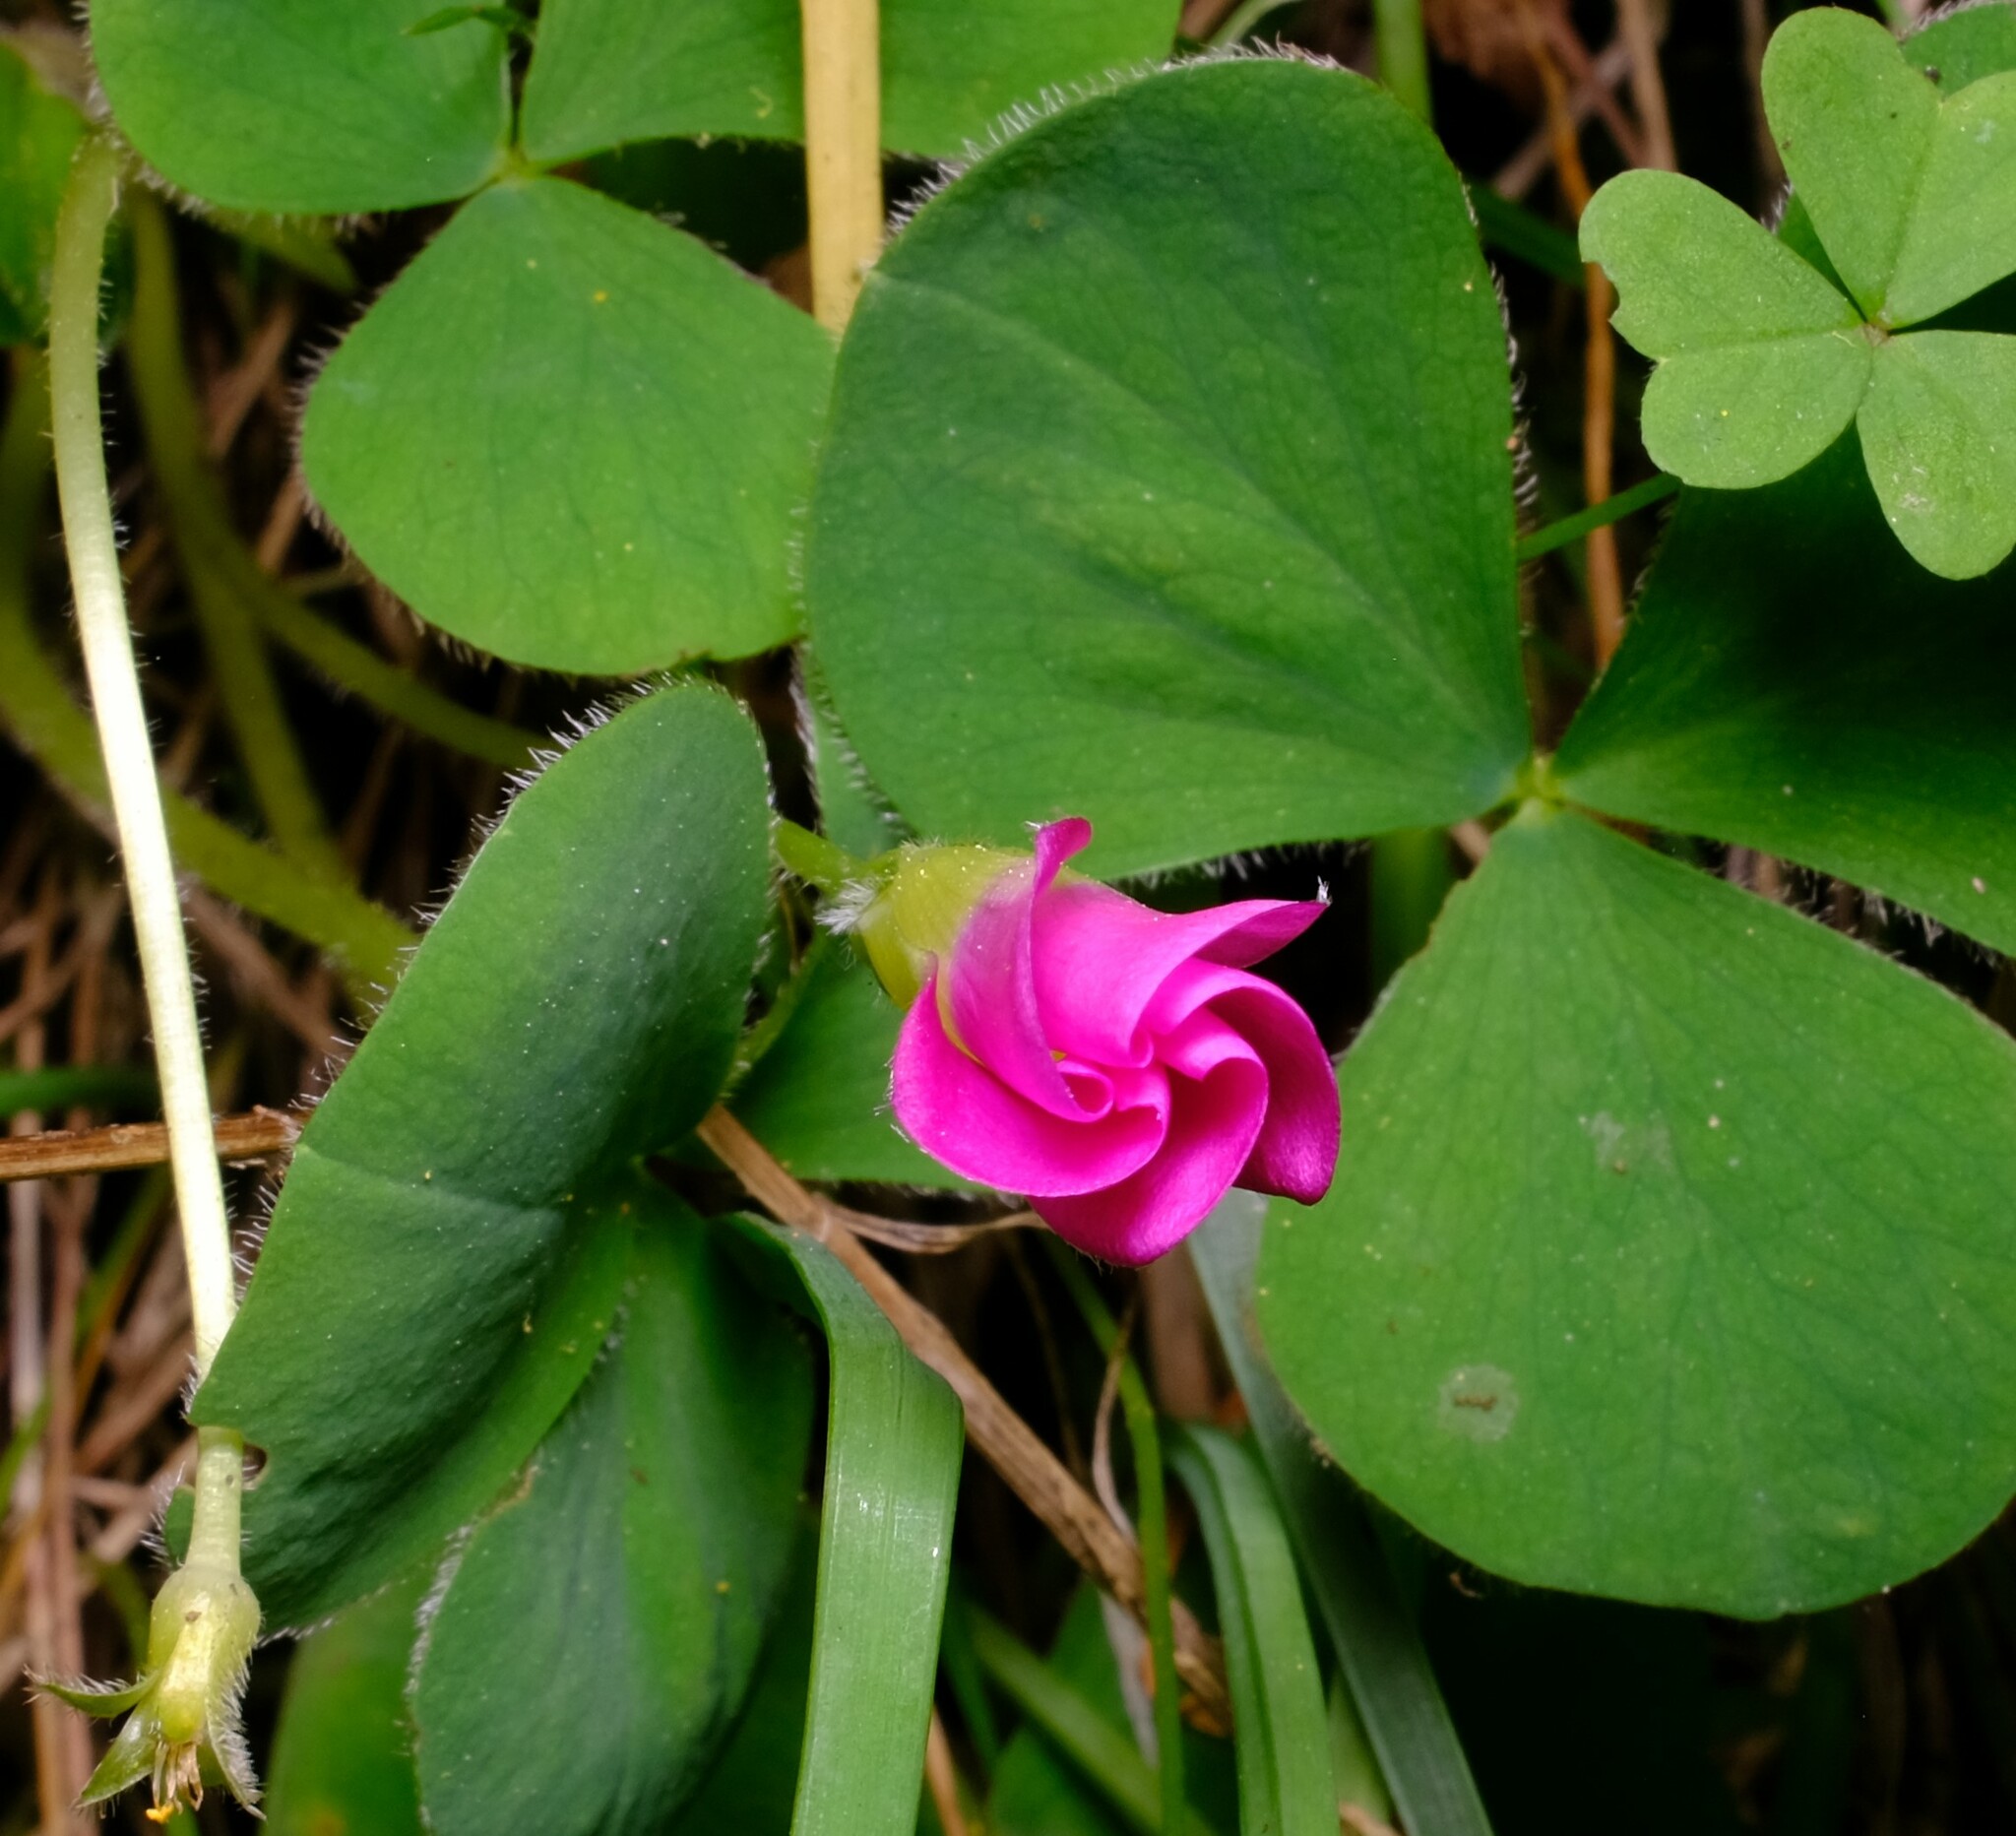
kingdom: Plantae
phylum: Tracheophyta
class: Magnoliopsida
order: Oxalidales
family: Oxalidaceae
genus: Oxalis
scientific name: Oxalis purpurea
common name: Purple woodsorrel
